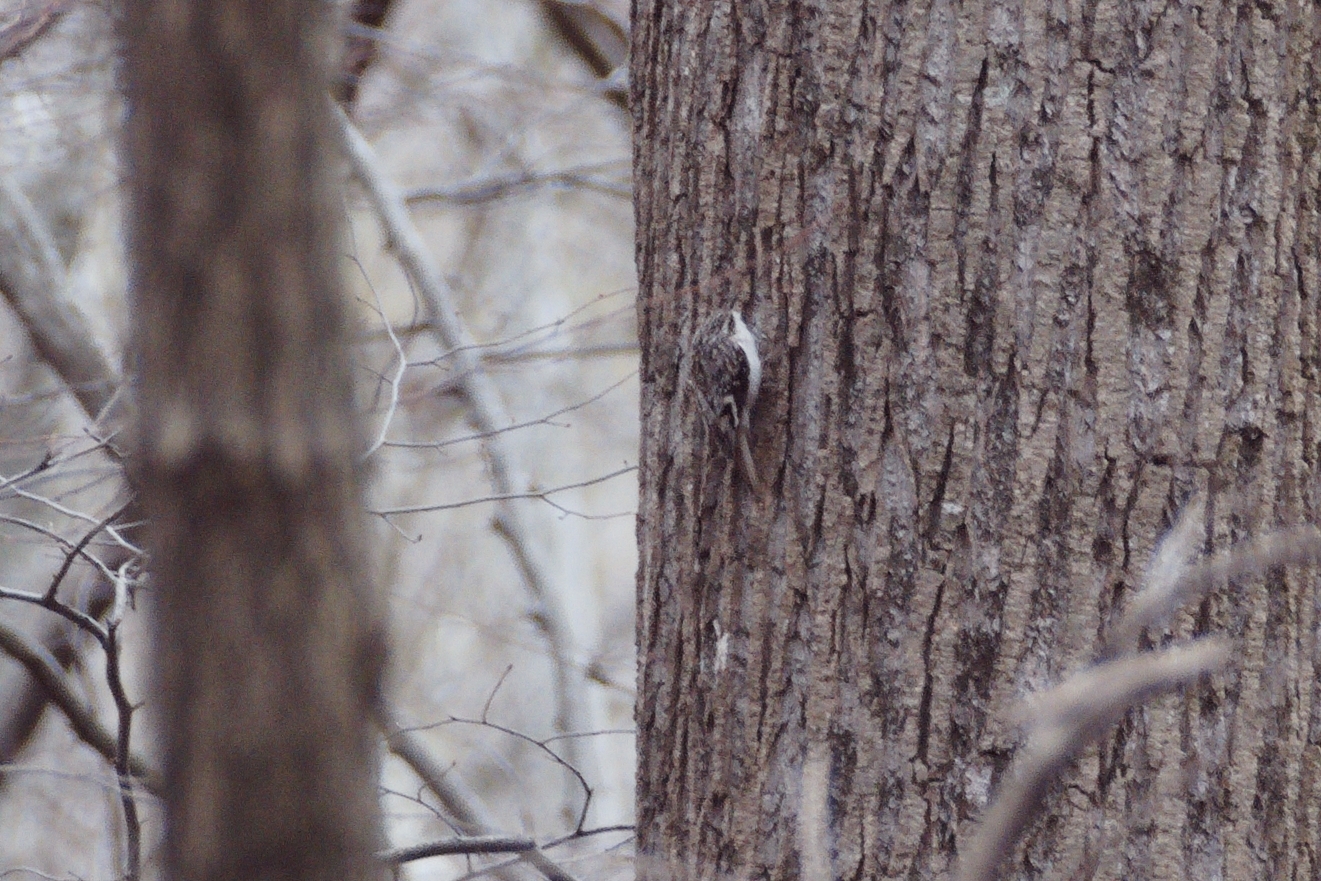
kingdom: Animalia
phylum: Chordata
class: Aves
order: Passeriformes
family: Certhiidae
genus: Certhia
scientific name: Certhia americana
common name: Brown creeper
